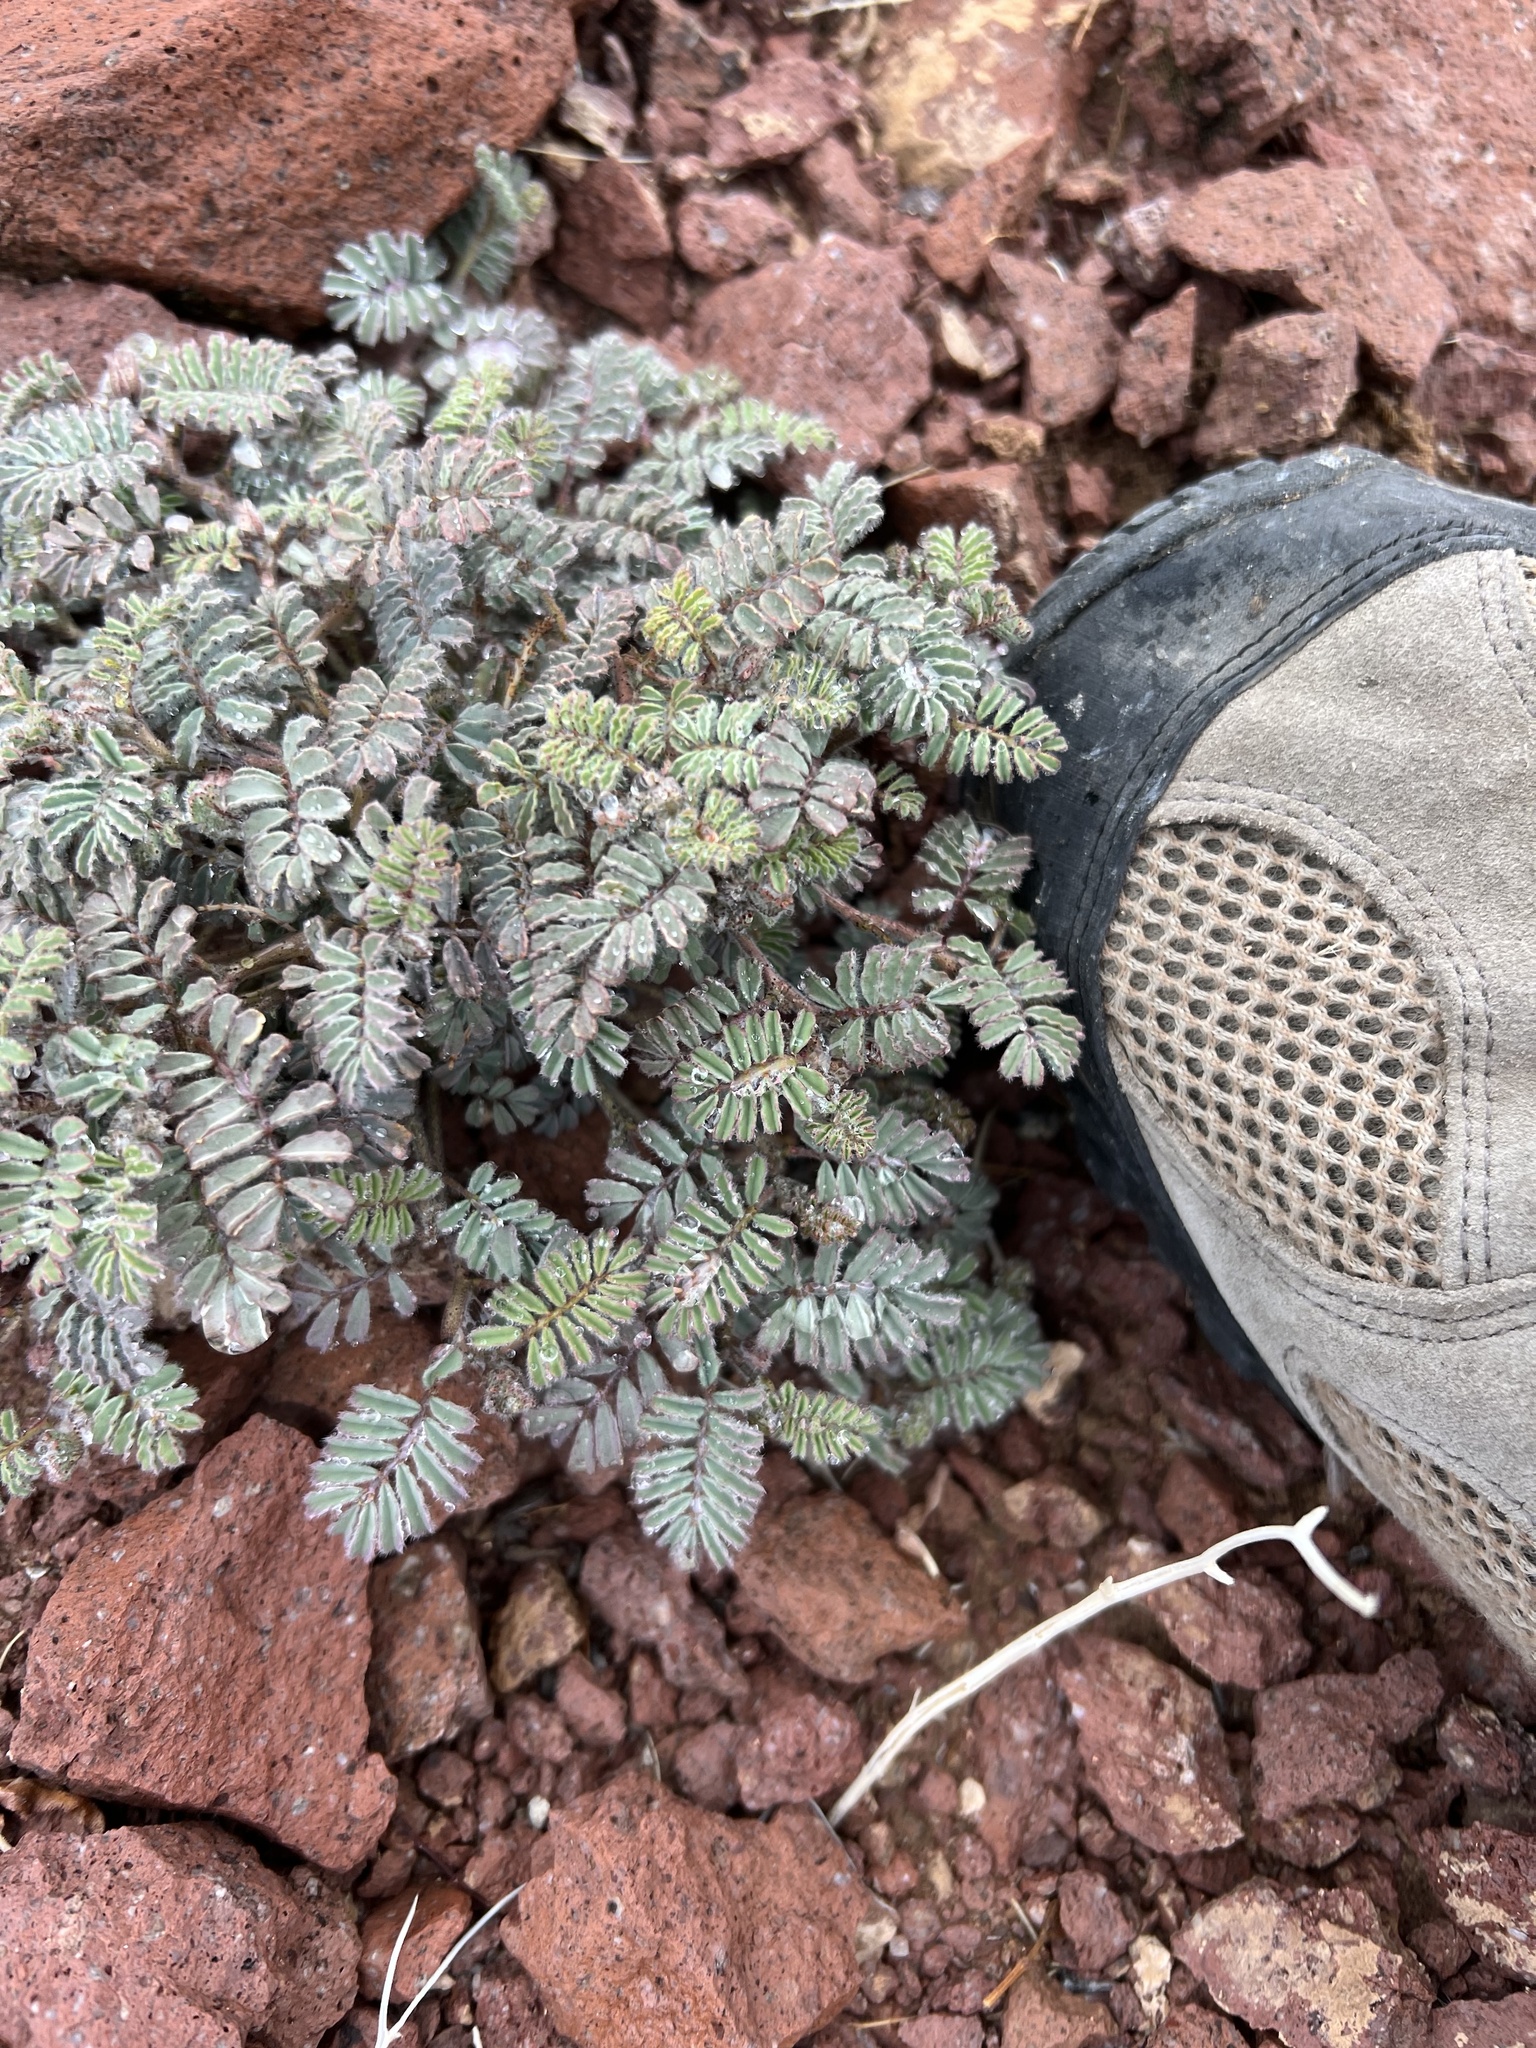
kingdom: Plantae
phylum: Tracheophyta
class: Magnoliopsida
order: Fabales
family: Fabaceae
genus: Dalea
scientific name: Dalea mollissima
